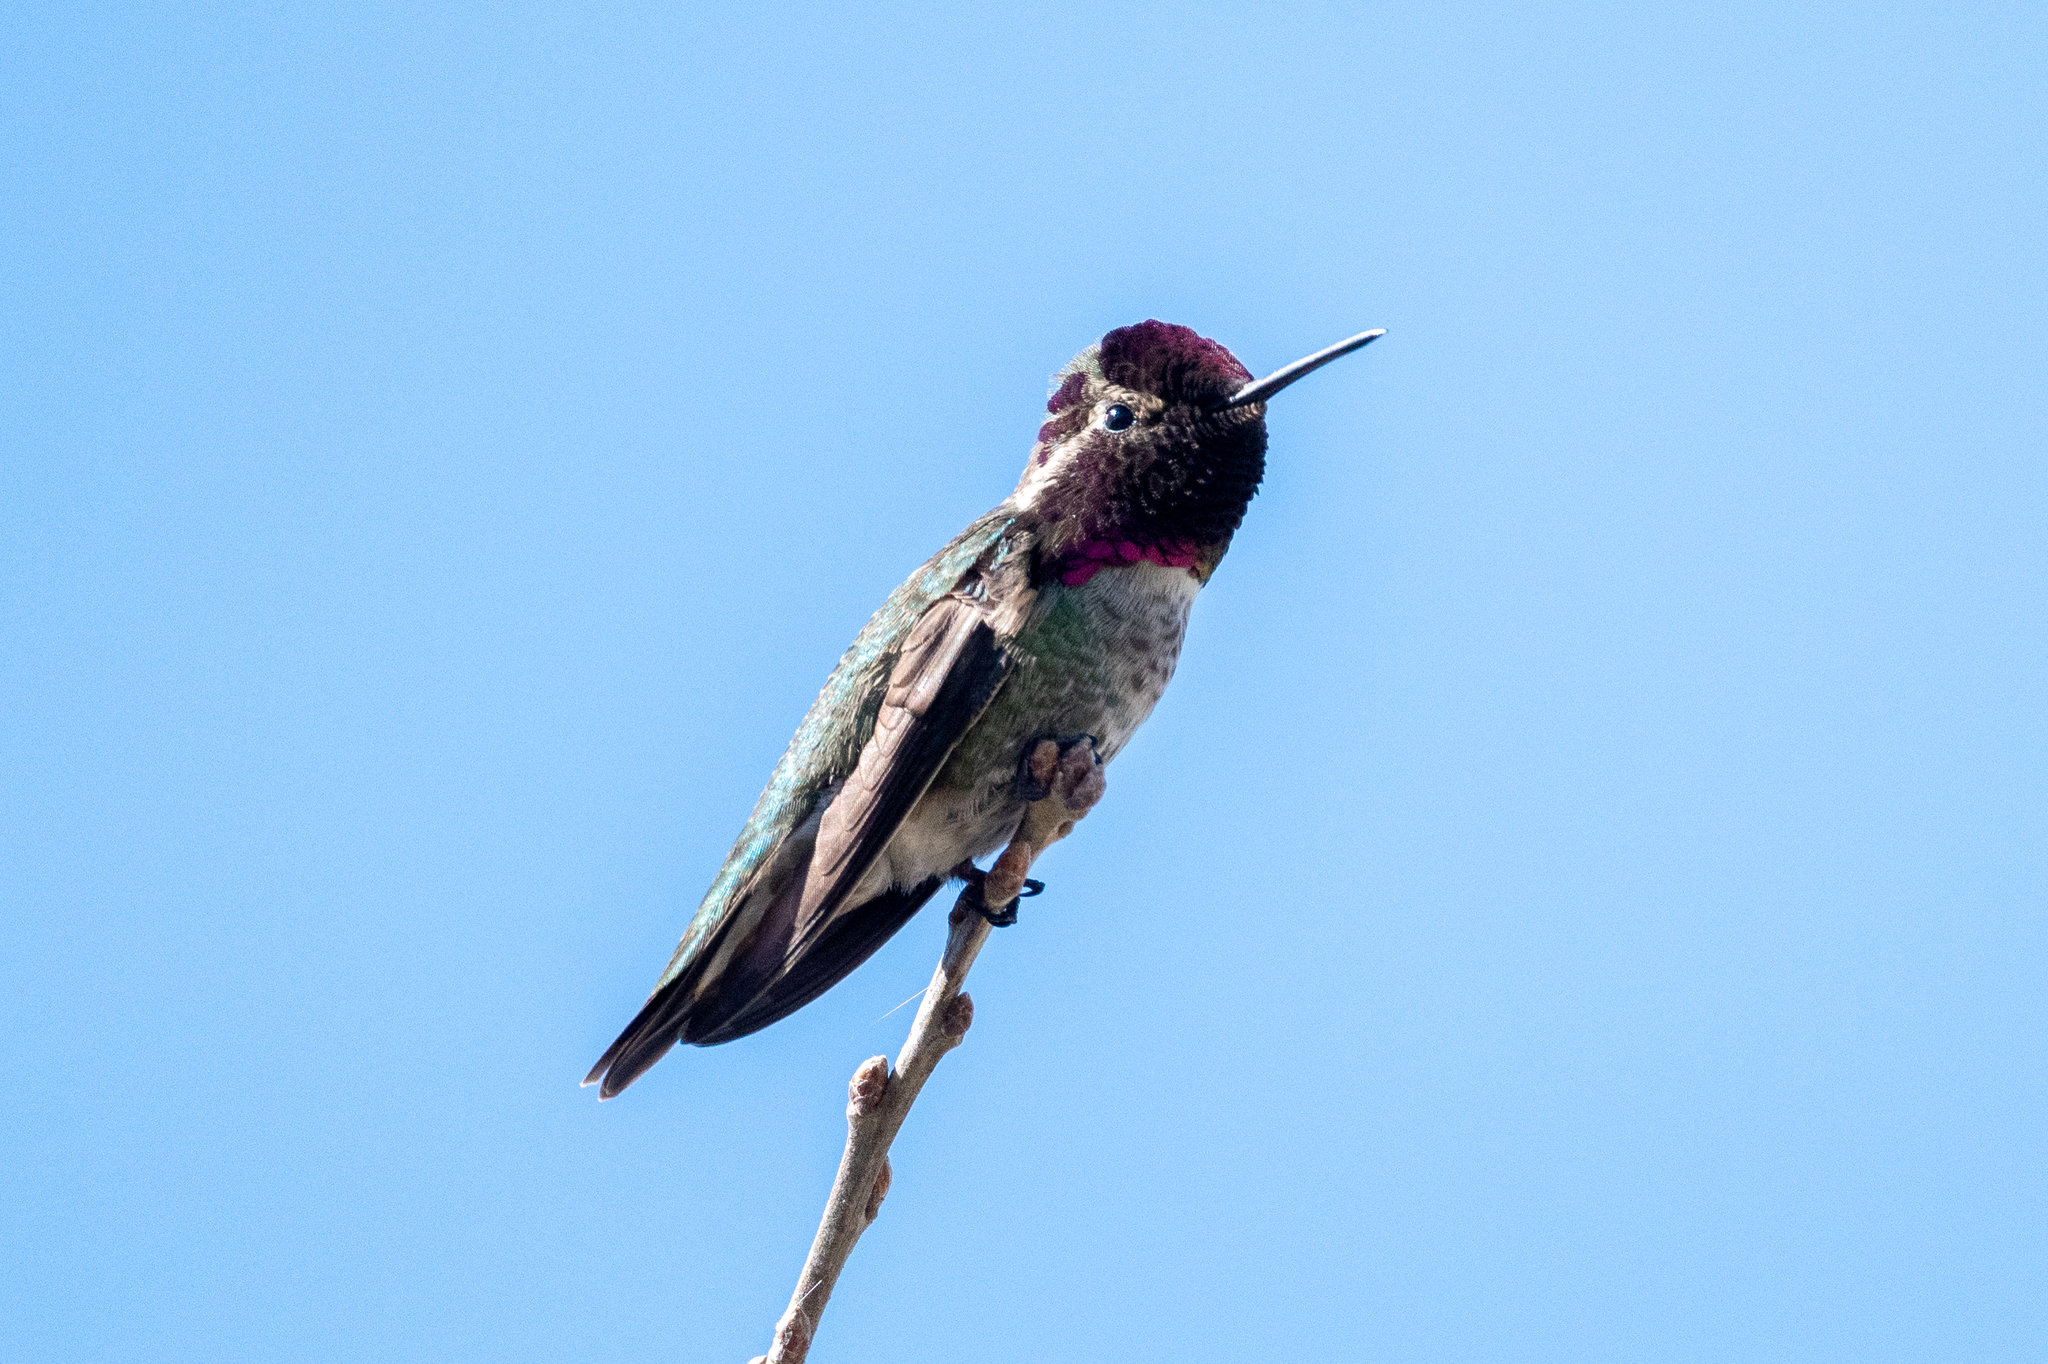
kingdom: Animalia
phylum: Chordata
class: Aves
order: Apodiformes
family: Trochilidae
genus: Calypte
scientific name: Calypte anna
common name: Anna's hummingbird
